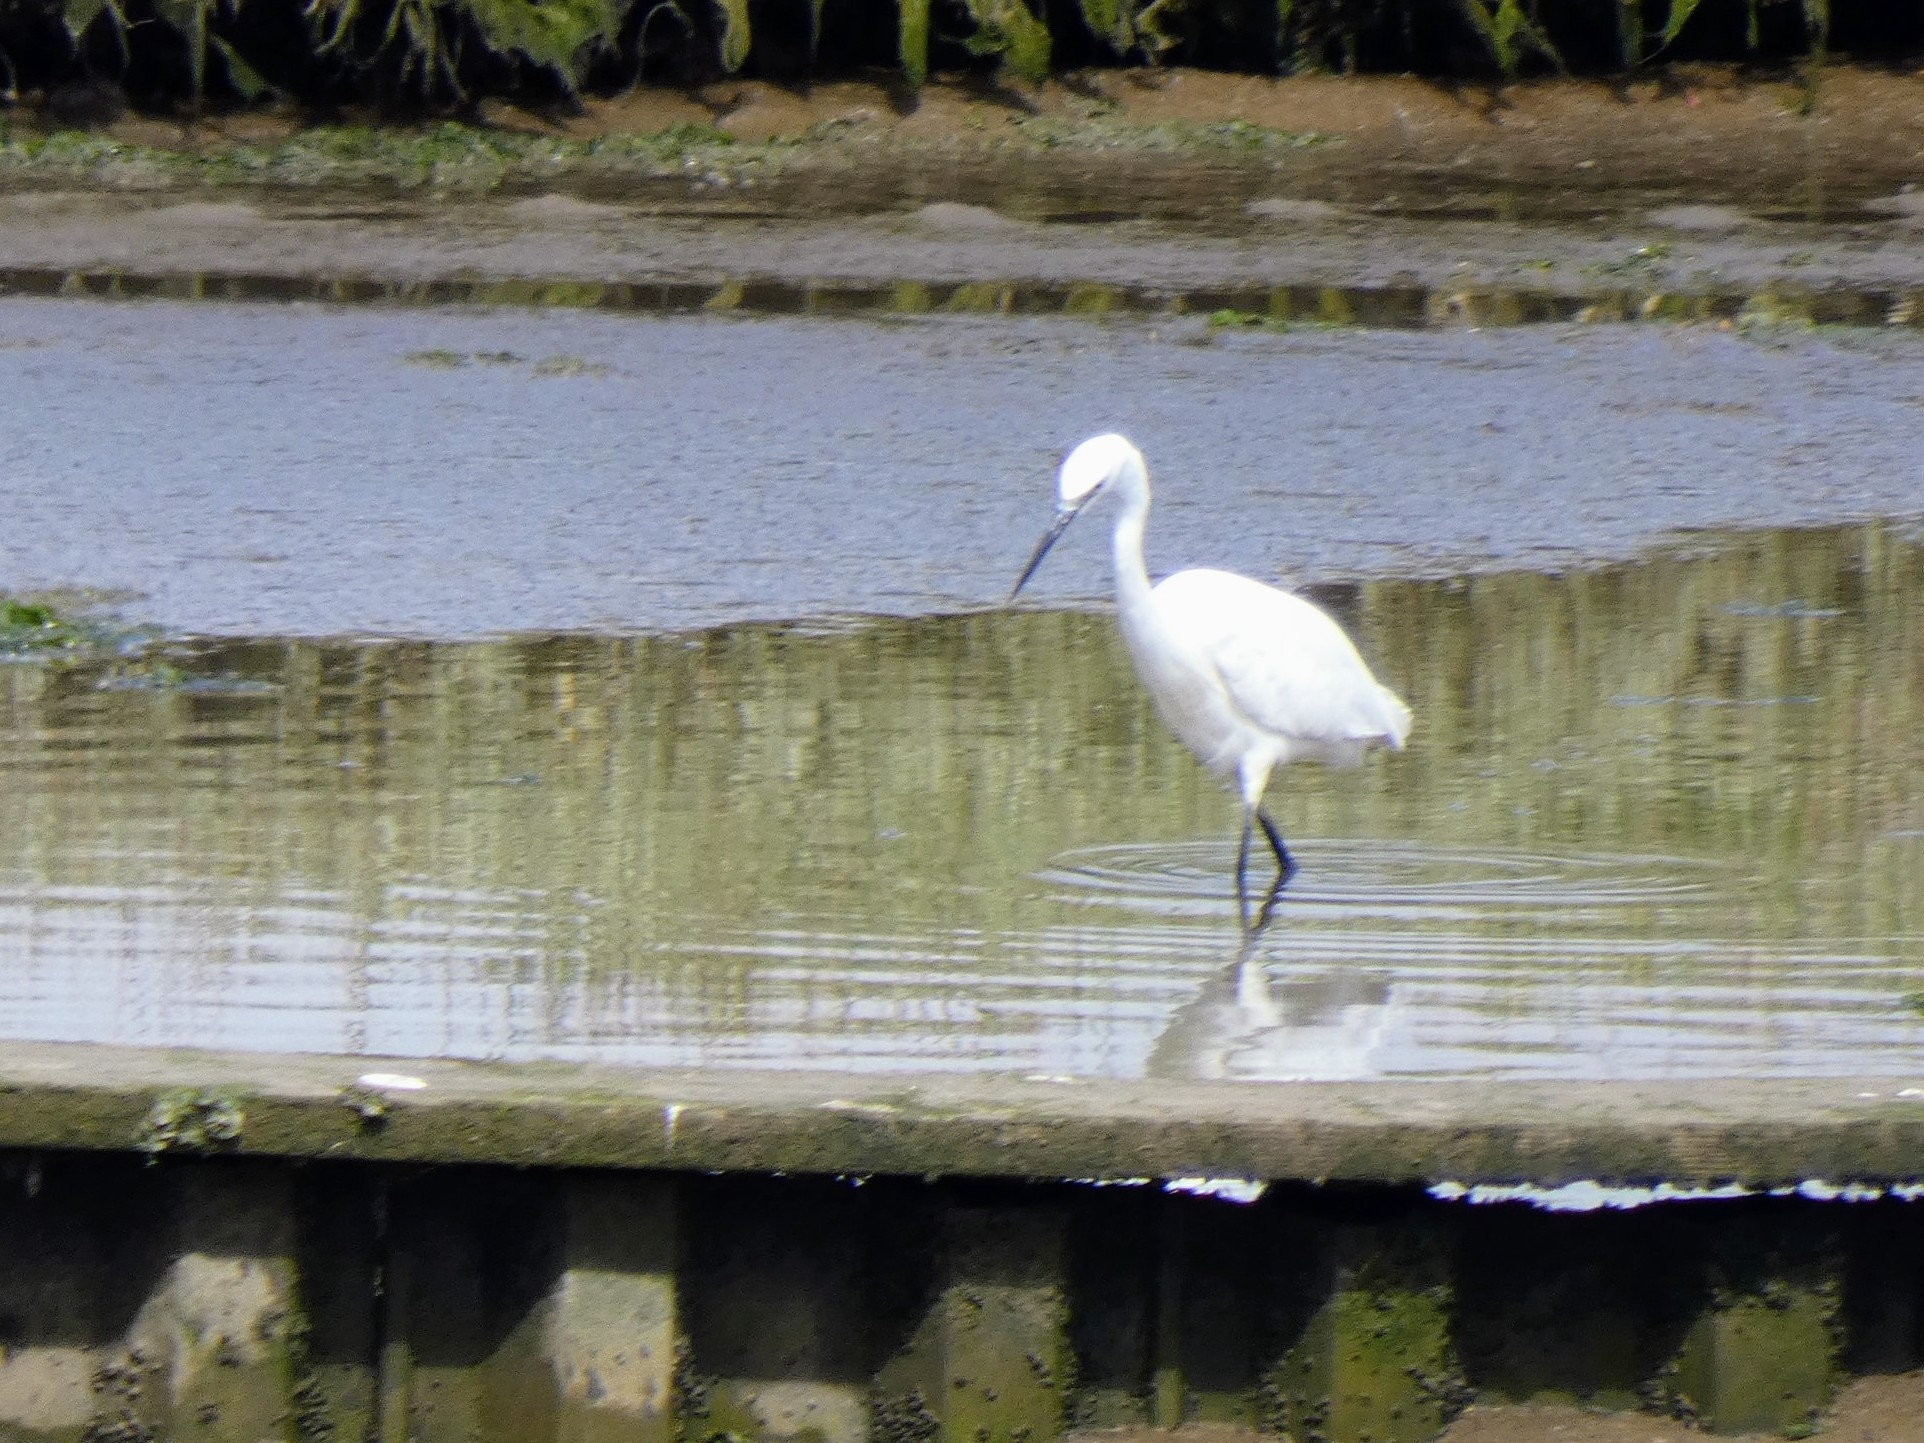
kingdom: Animalia
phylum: Chordata
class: Aves
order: Pelecaniformes
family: Ardeidae
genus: Egretta
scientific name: Egretta garzetta
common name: Little egret
